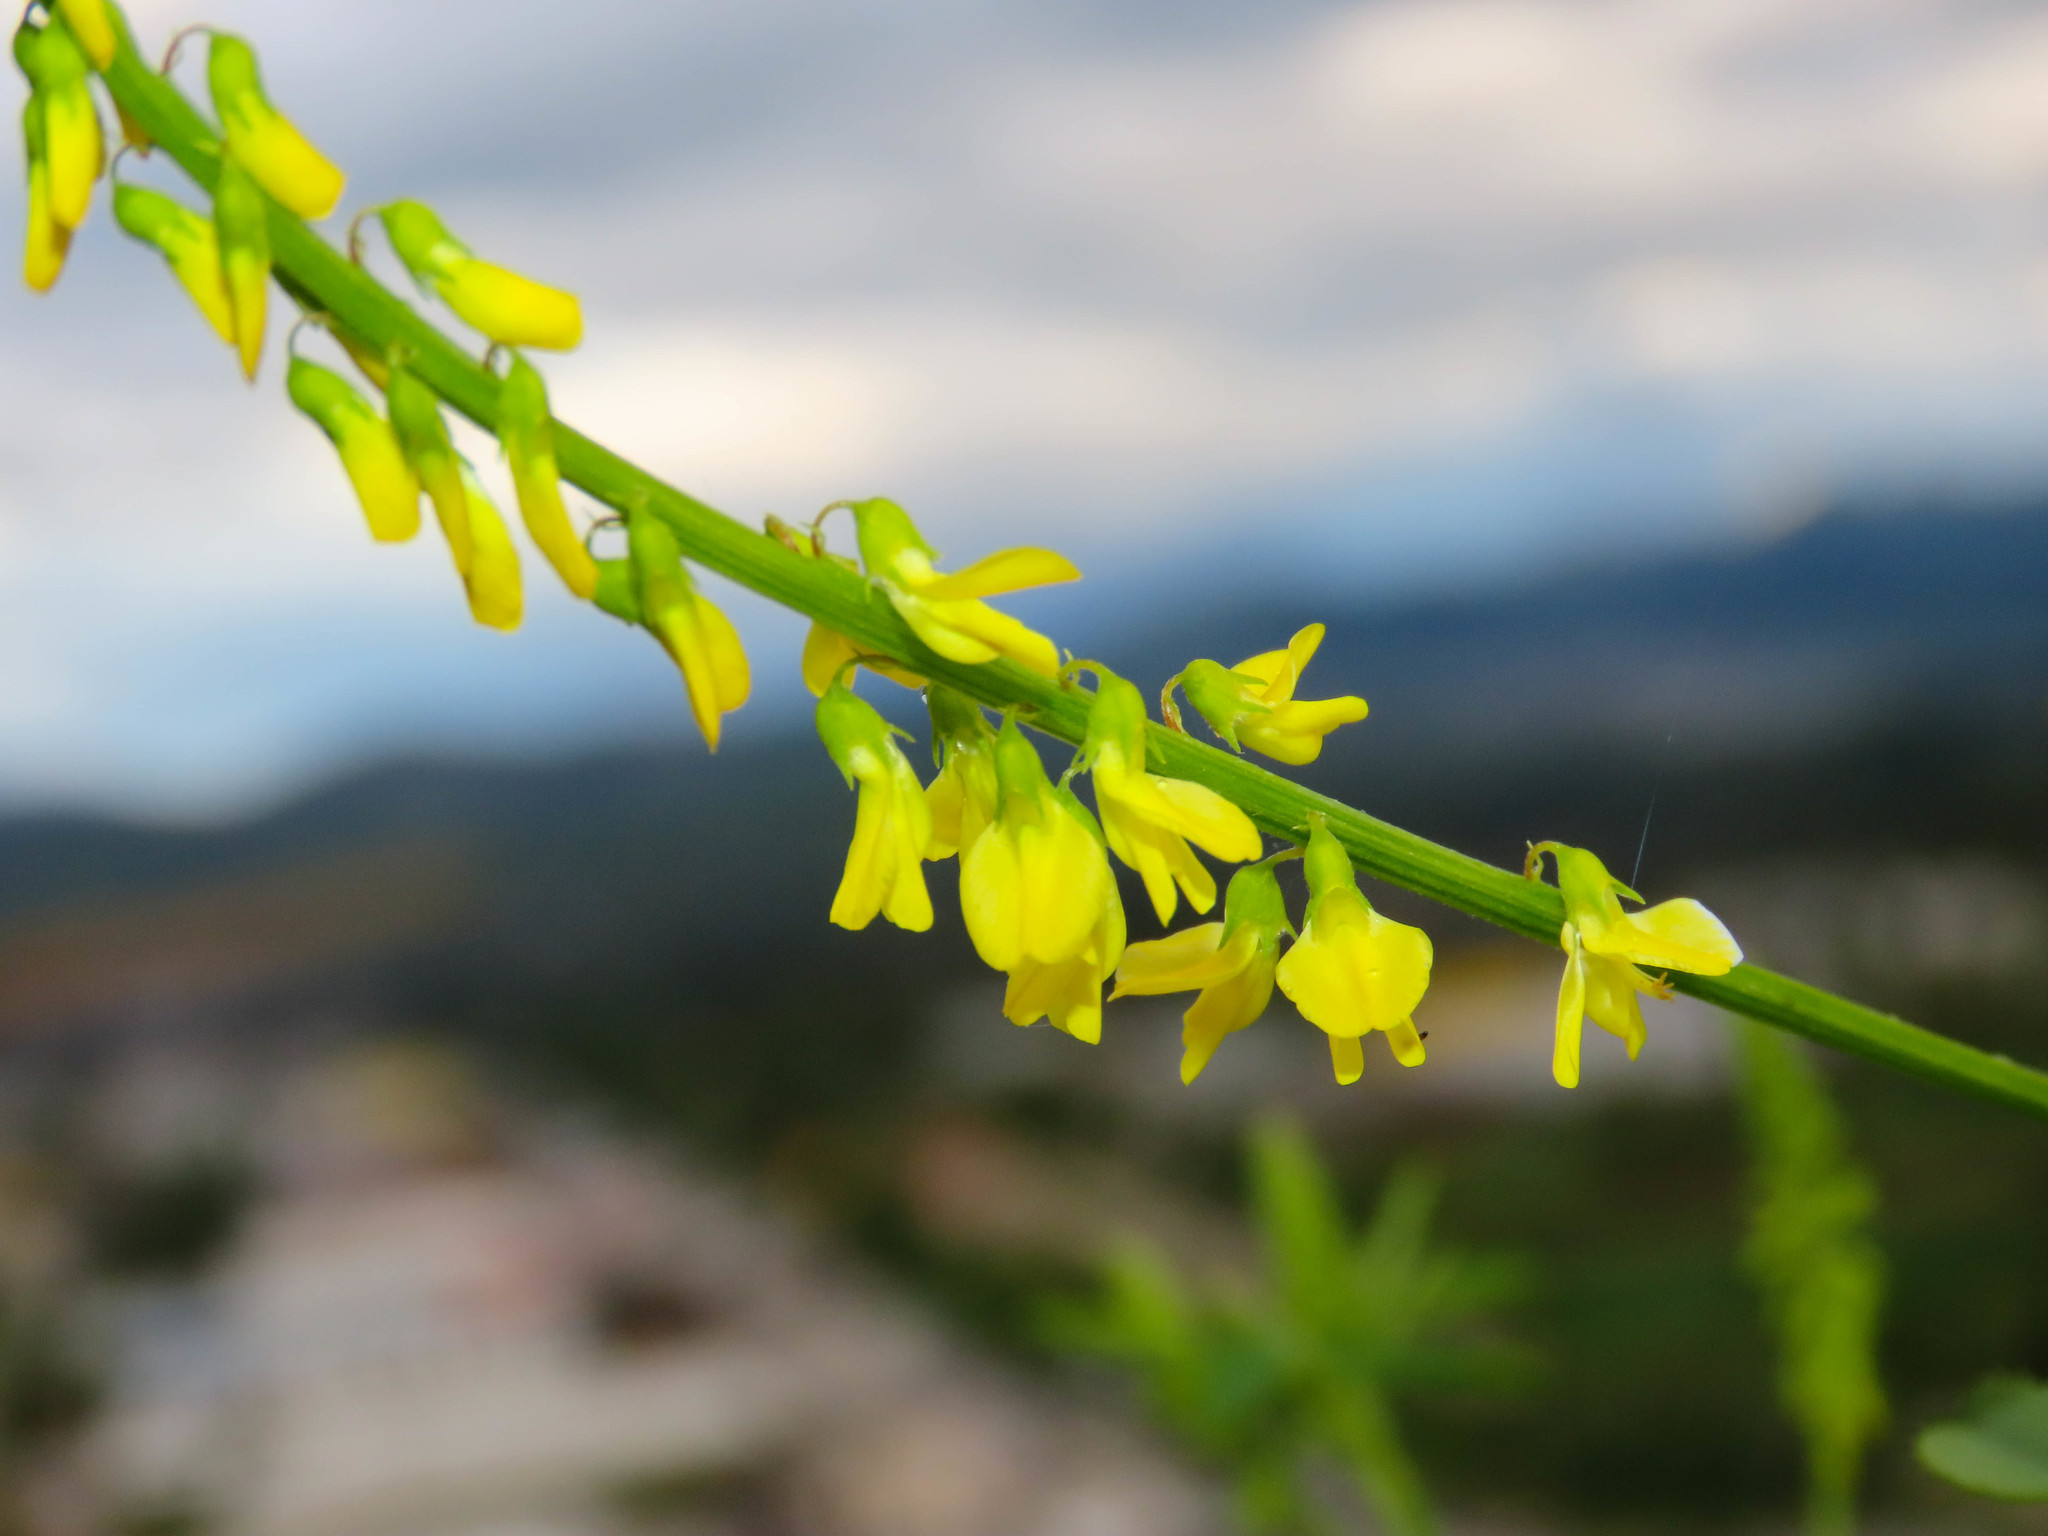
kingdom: Plantae
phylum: Tracheophyta
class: Magnoliopsida
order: Fabales
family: Fabaceae
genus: Melilotus
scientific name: Melilotus officinalis
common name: Sweetclover
